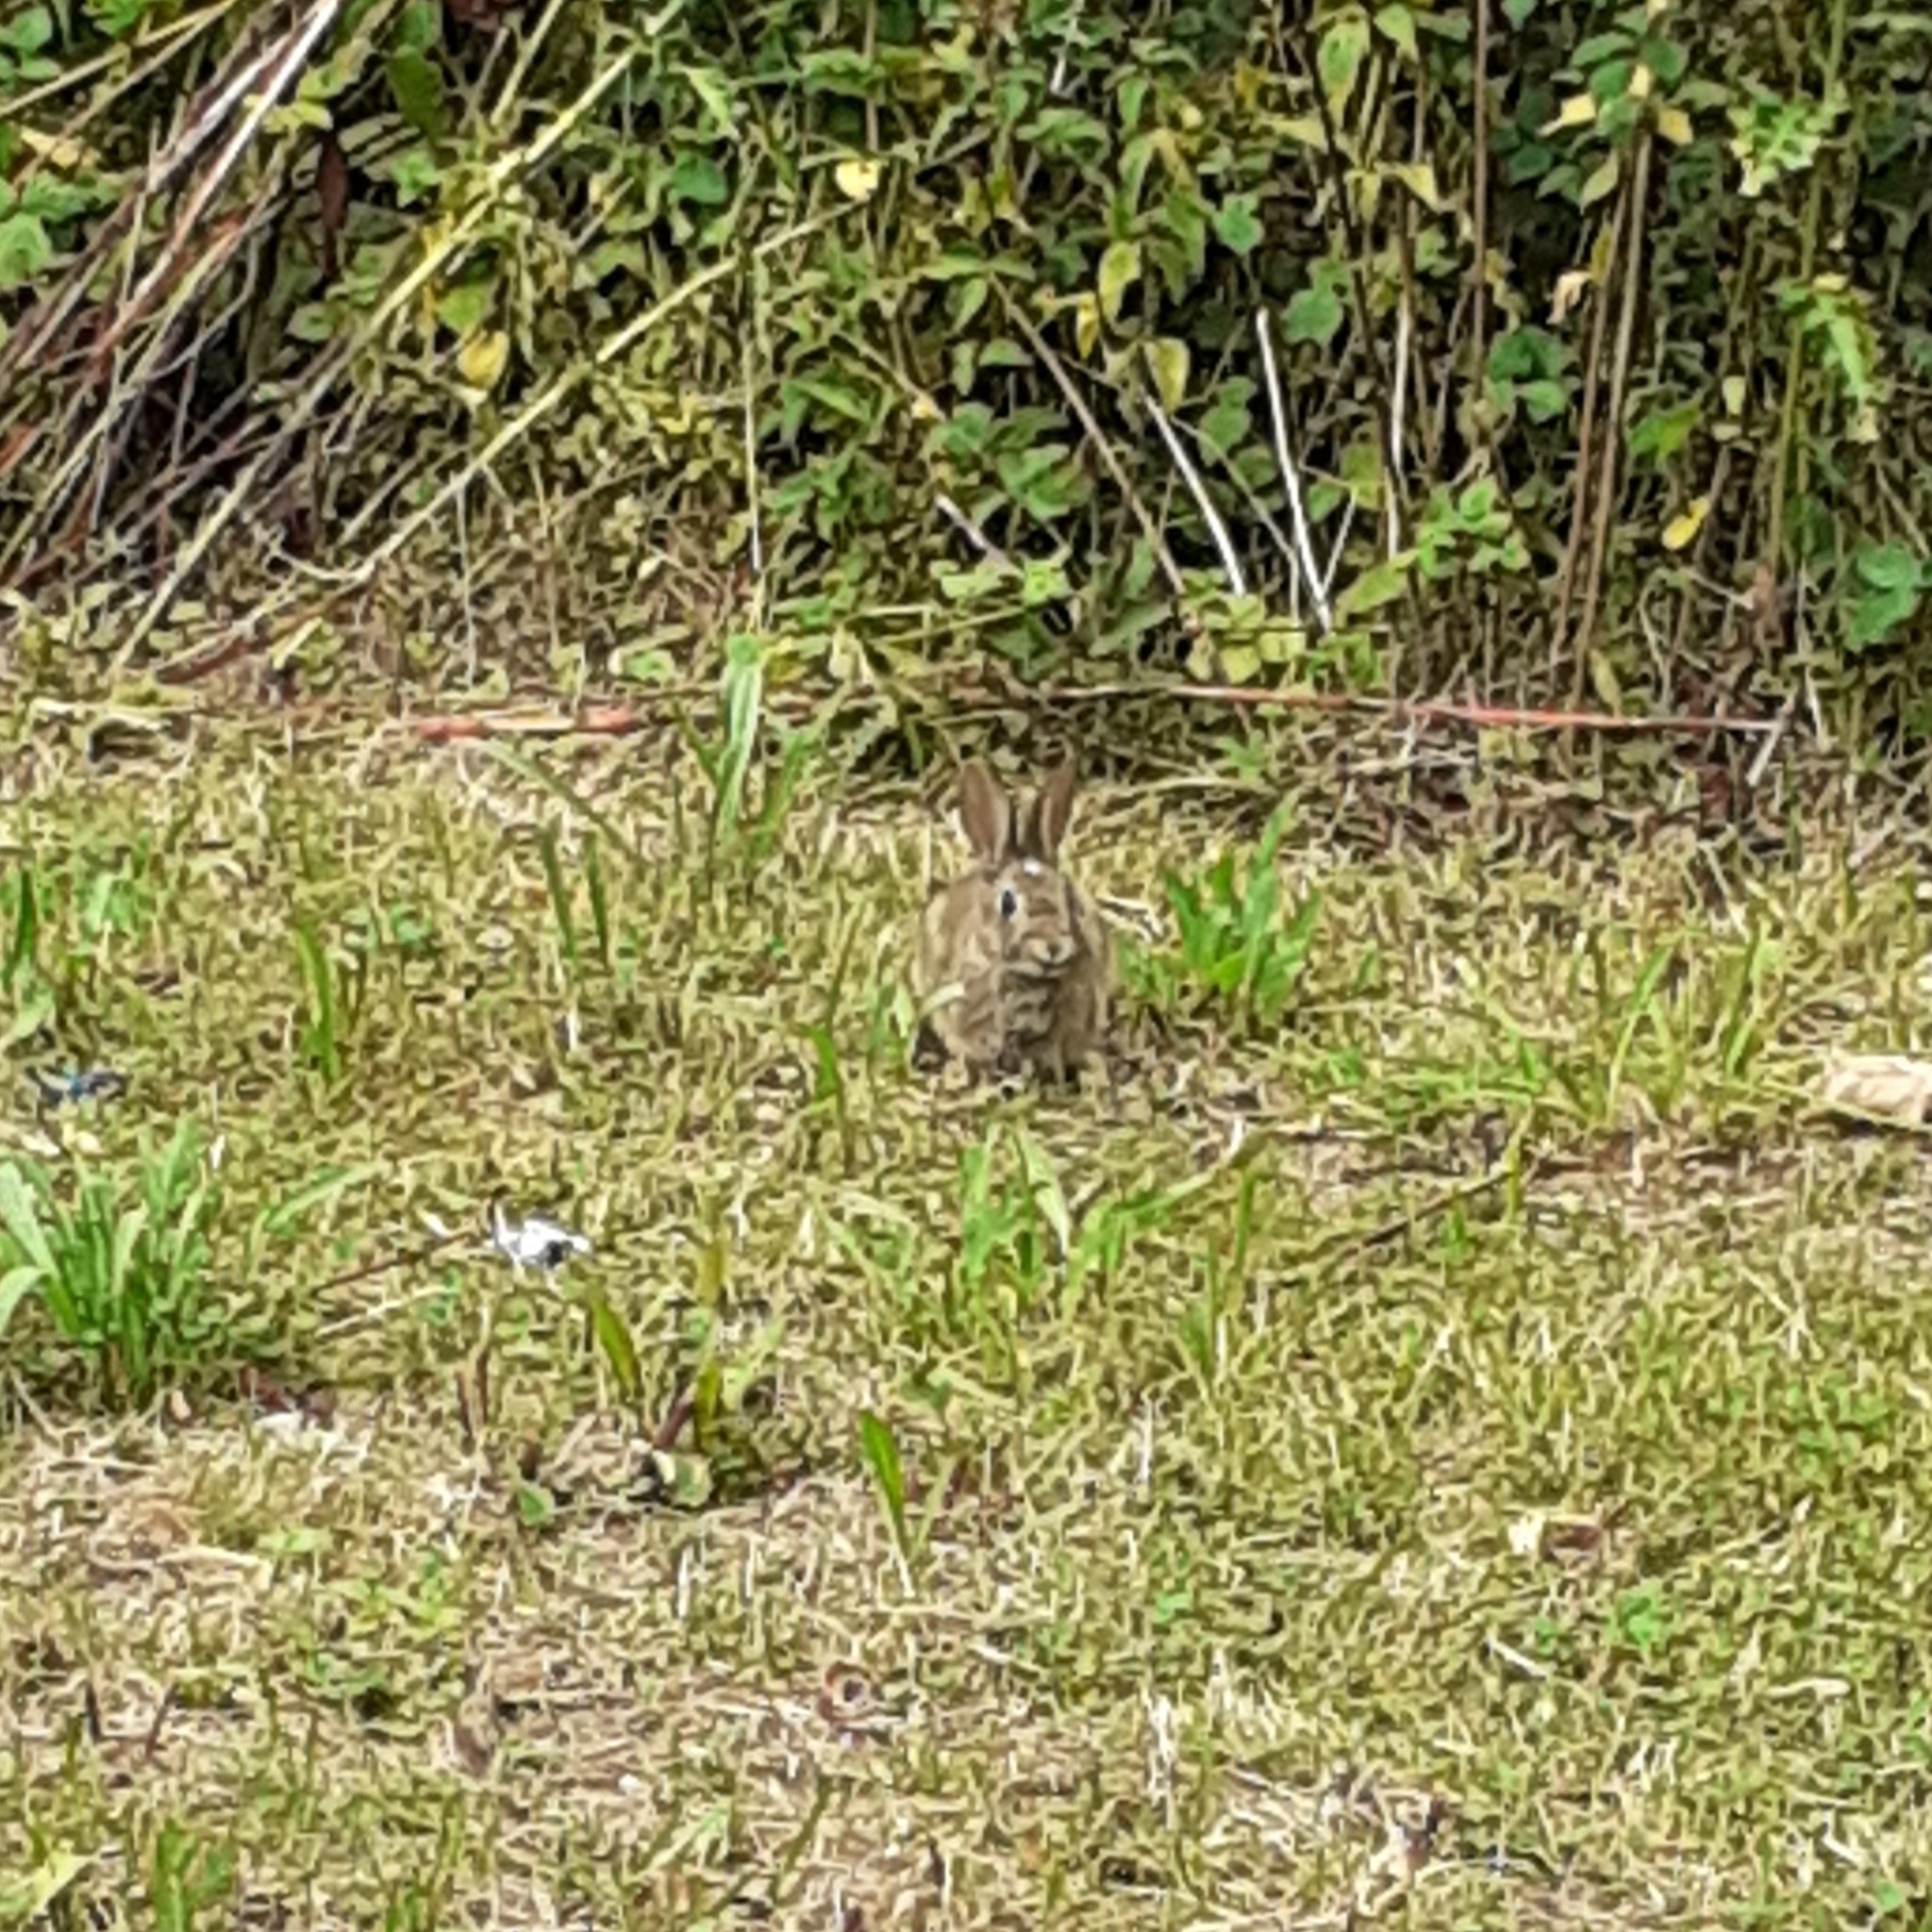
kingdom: Animalia
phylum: Chordata
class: Mammalia
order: Lagomorpha
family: Leporidae
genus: Oryctolagus
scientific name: Oryctolagus cuniculus
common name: European rabbit
